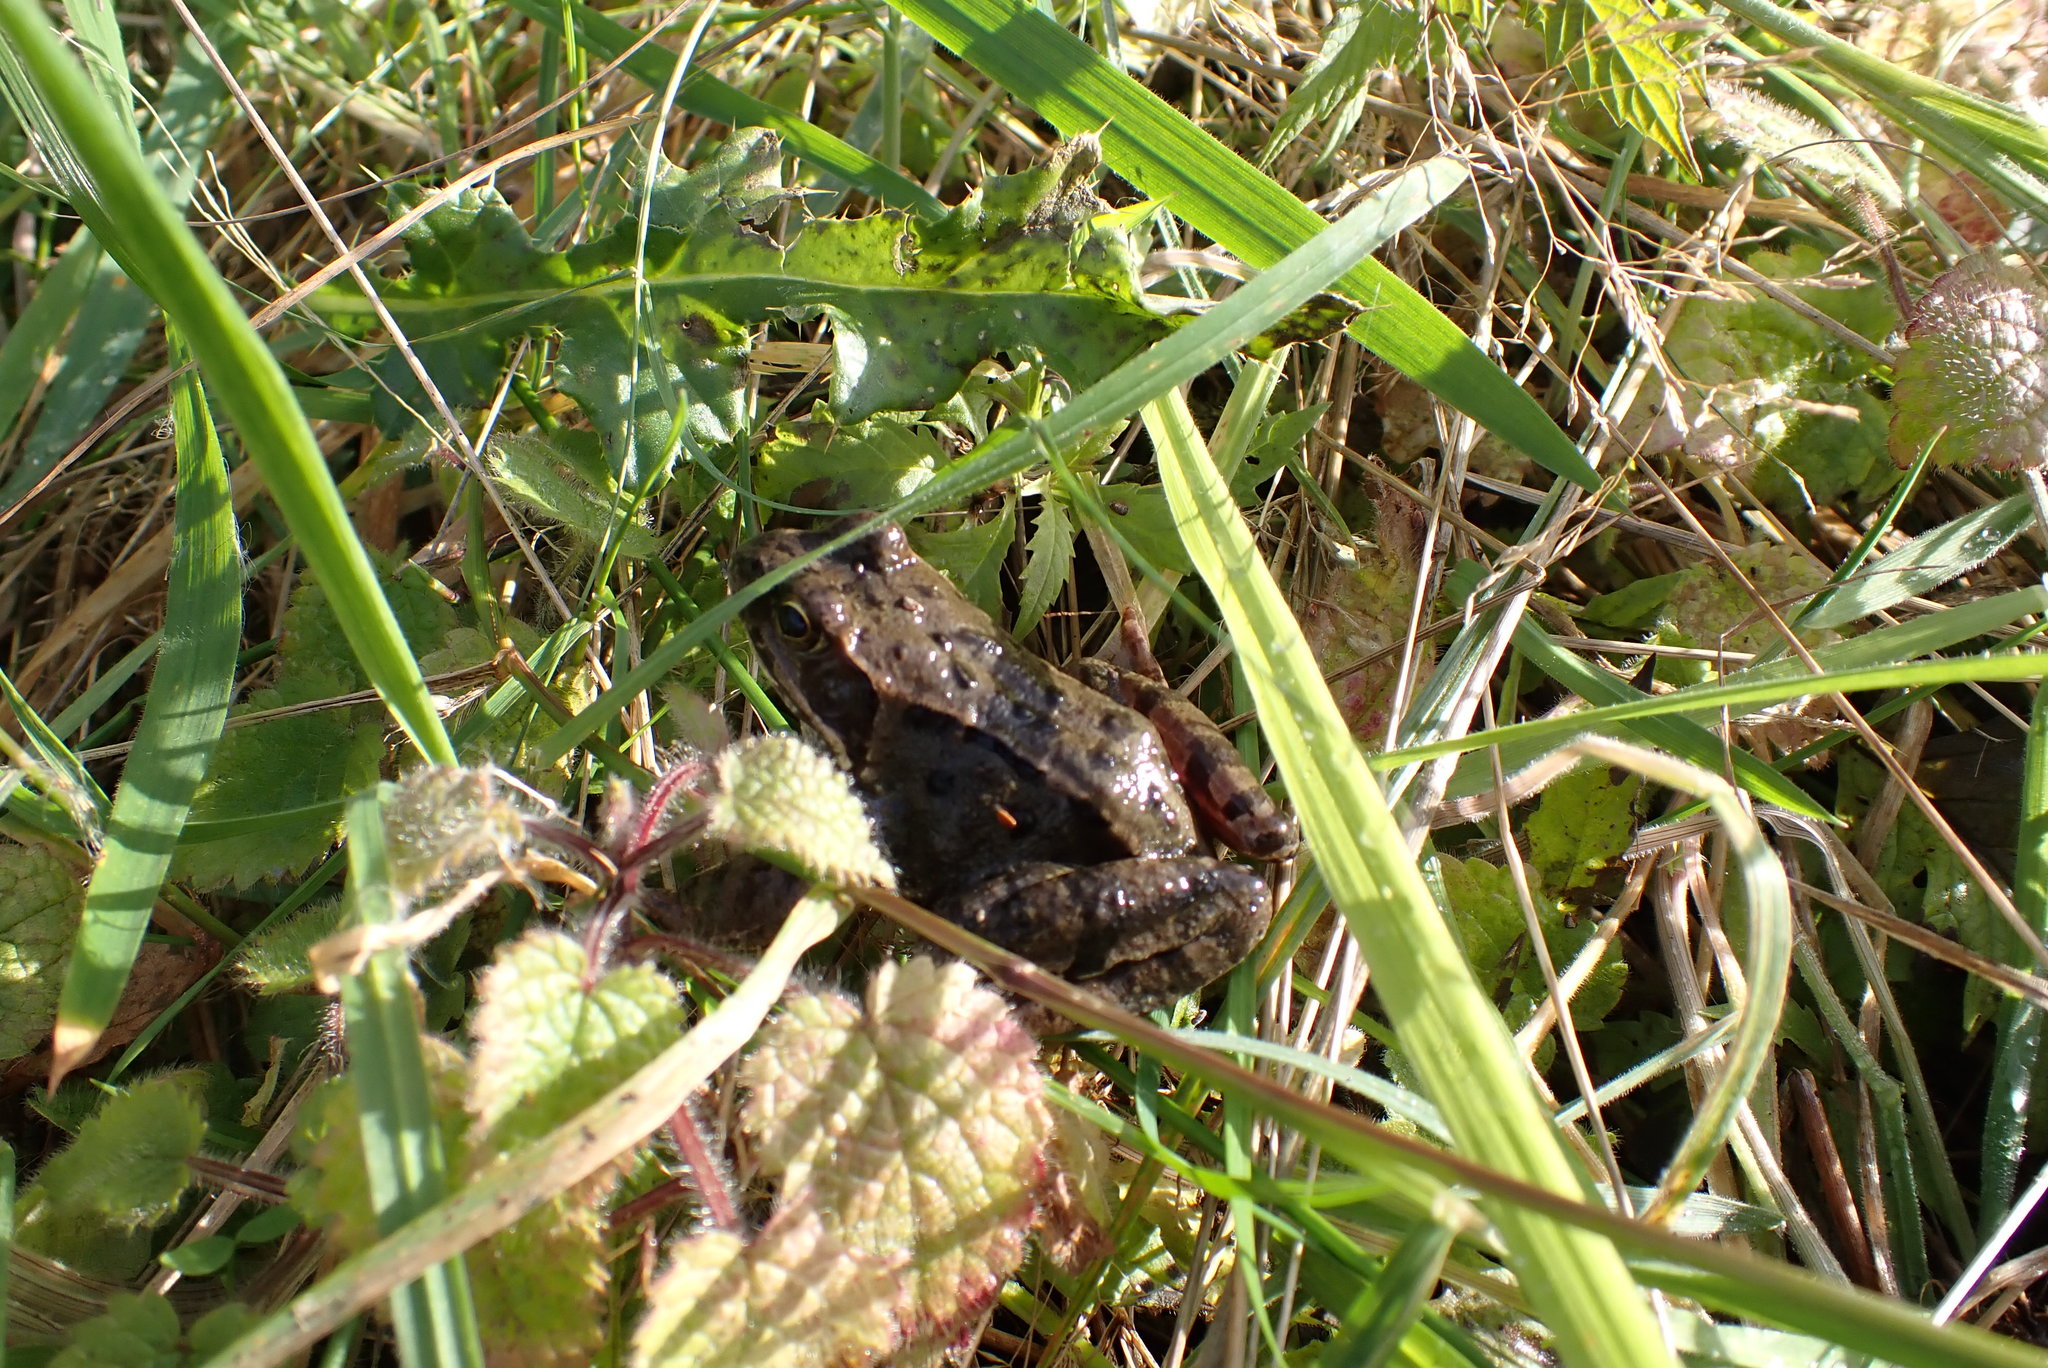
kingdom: Animalia
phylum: Chordata
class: Amphibia
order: Anura
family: Ranidae
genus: Rana
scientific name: Rana temporaria
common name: Common frog
